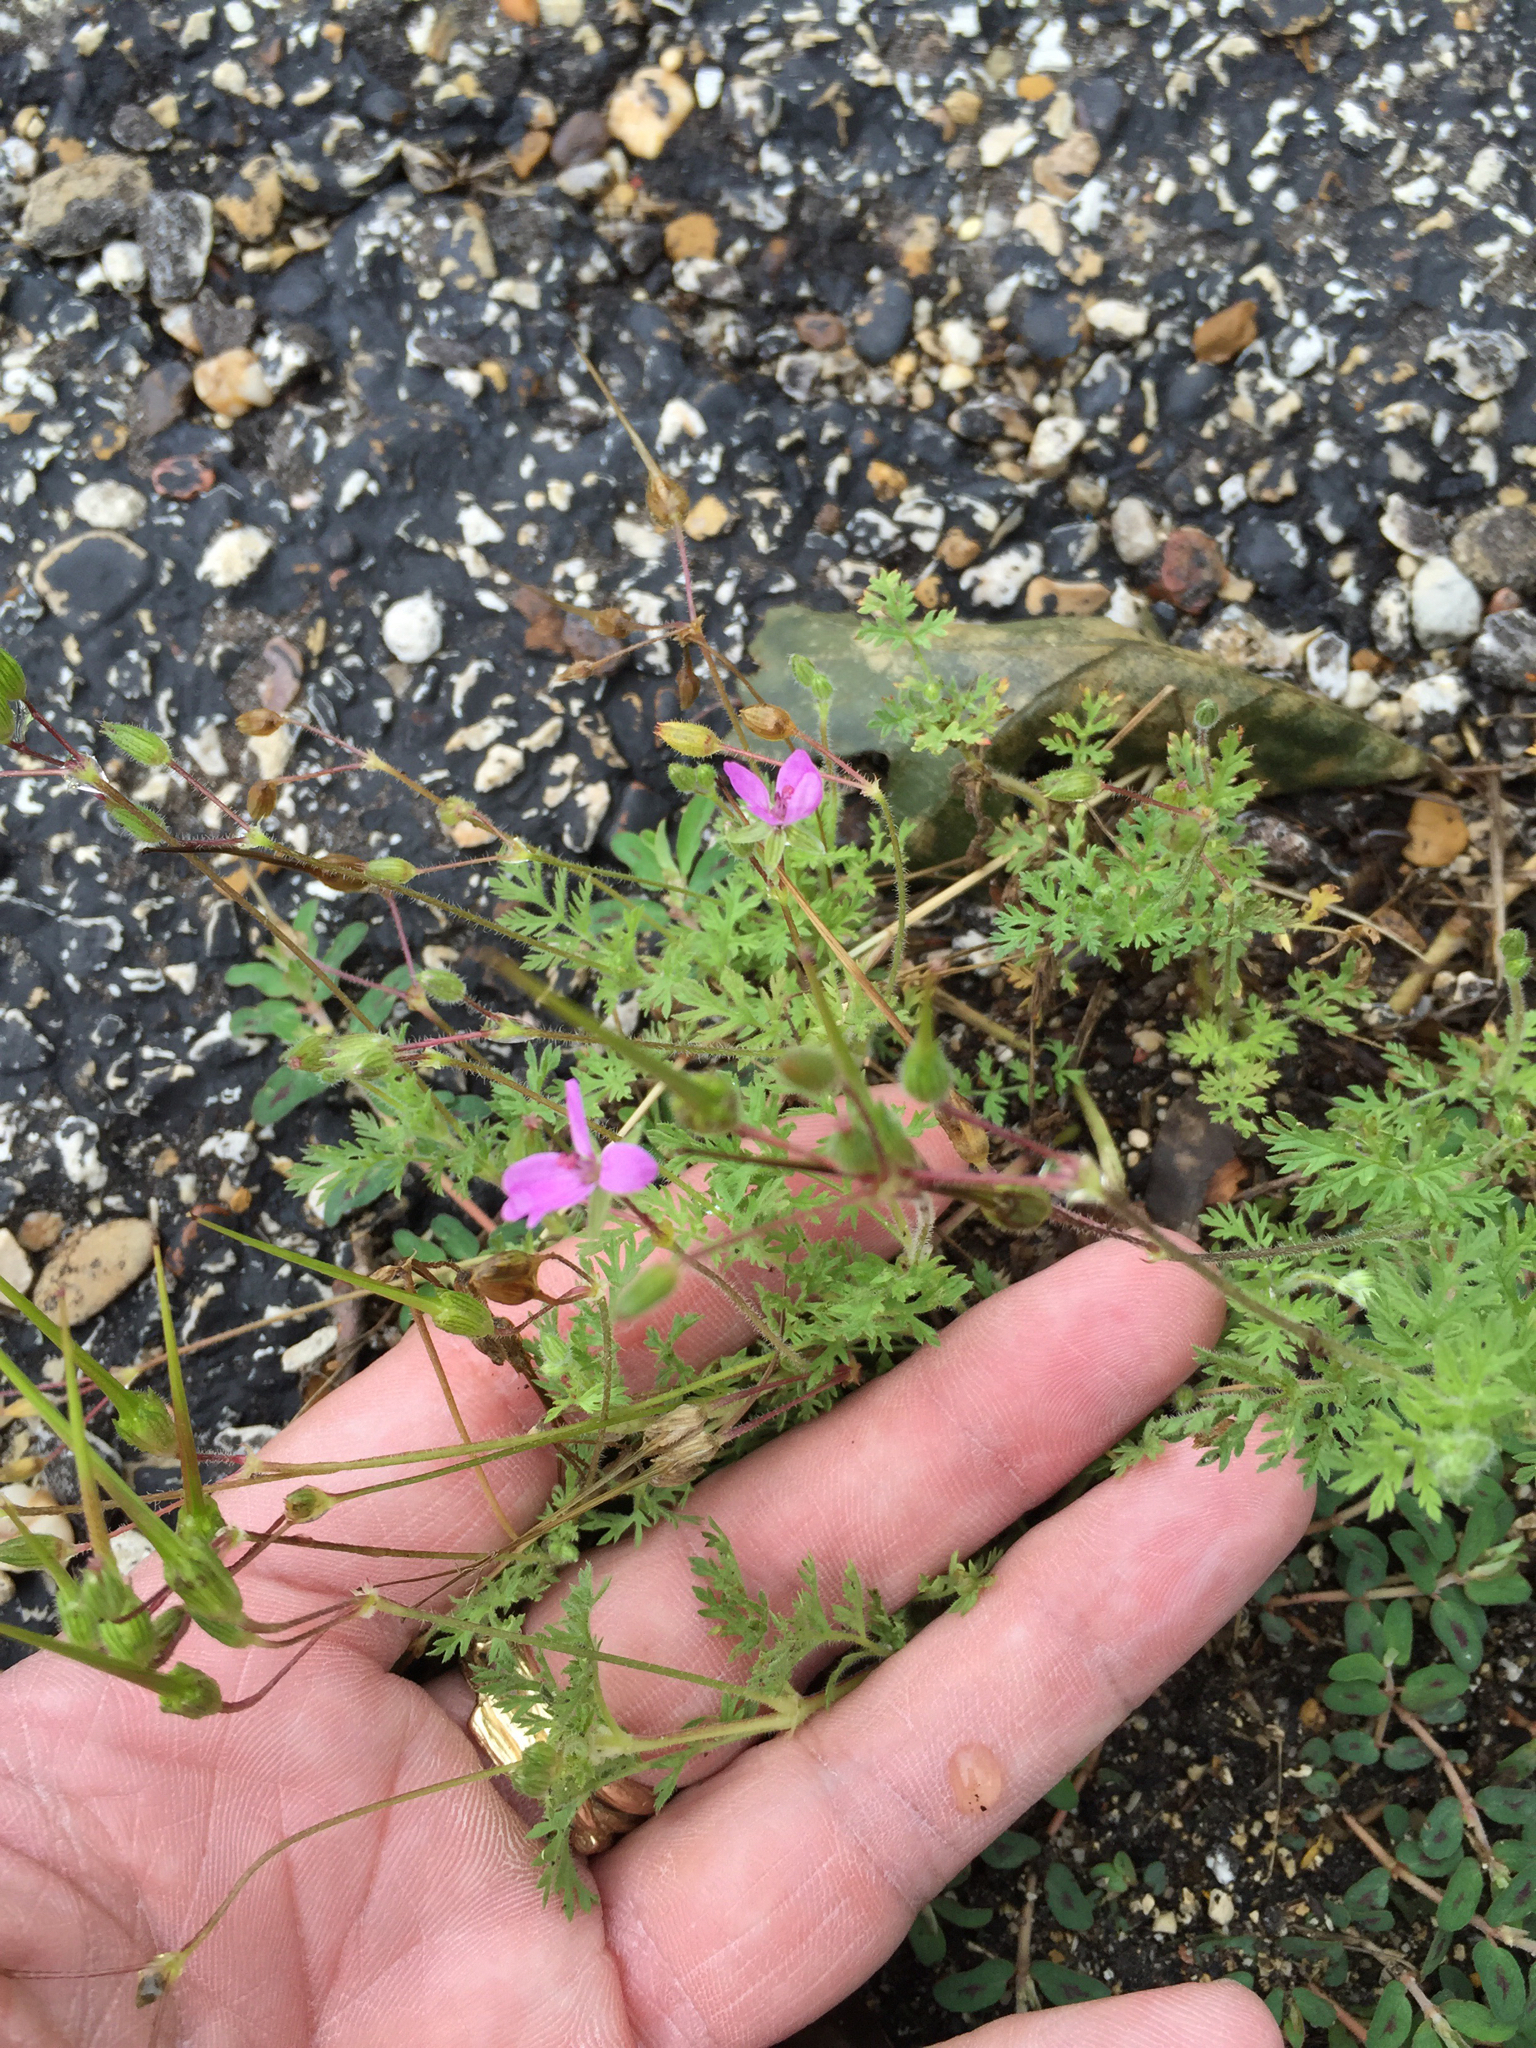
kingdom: Plantae
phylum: Tracheophyta
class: Magnoliopsida
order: Geraniales
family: Geraniaceae
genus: Erodium
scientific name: Erodium cicutarium
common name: Common stork's-bill
